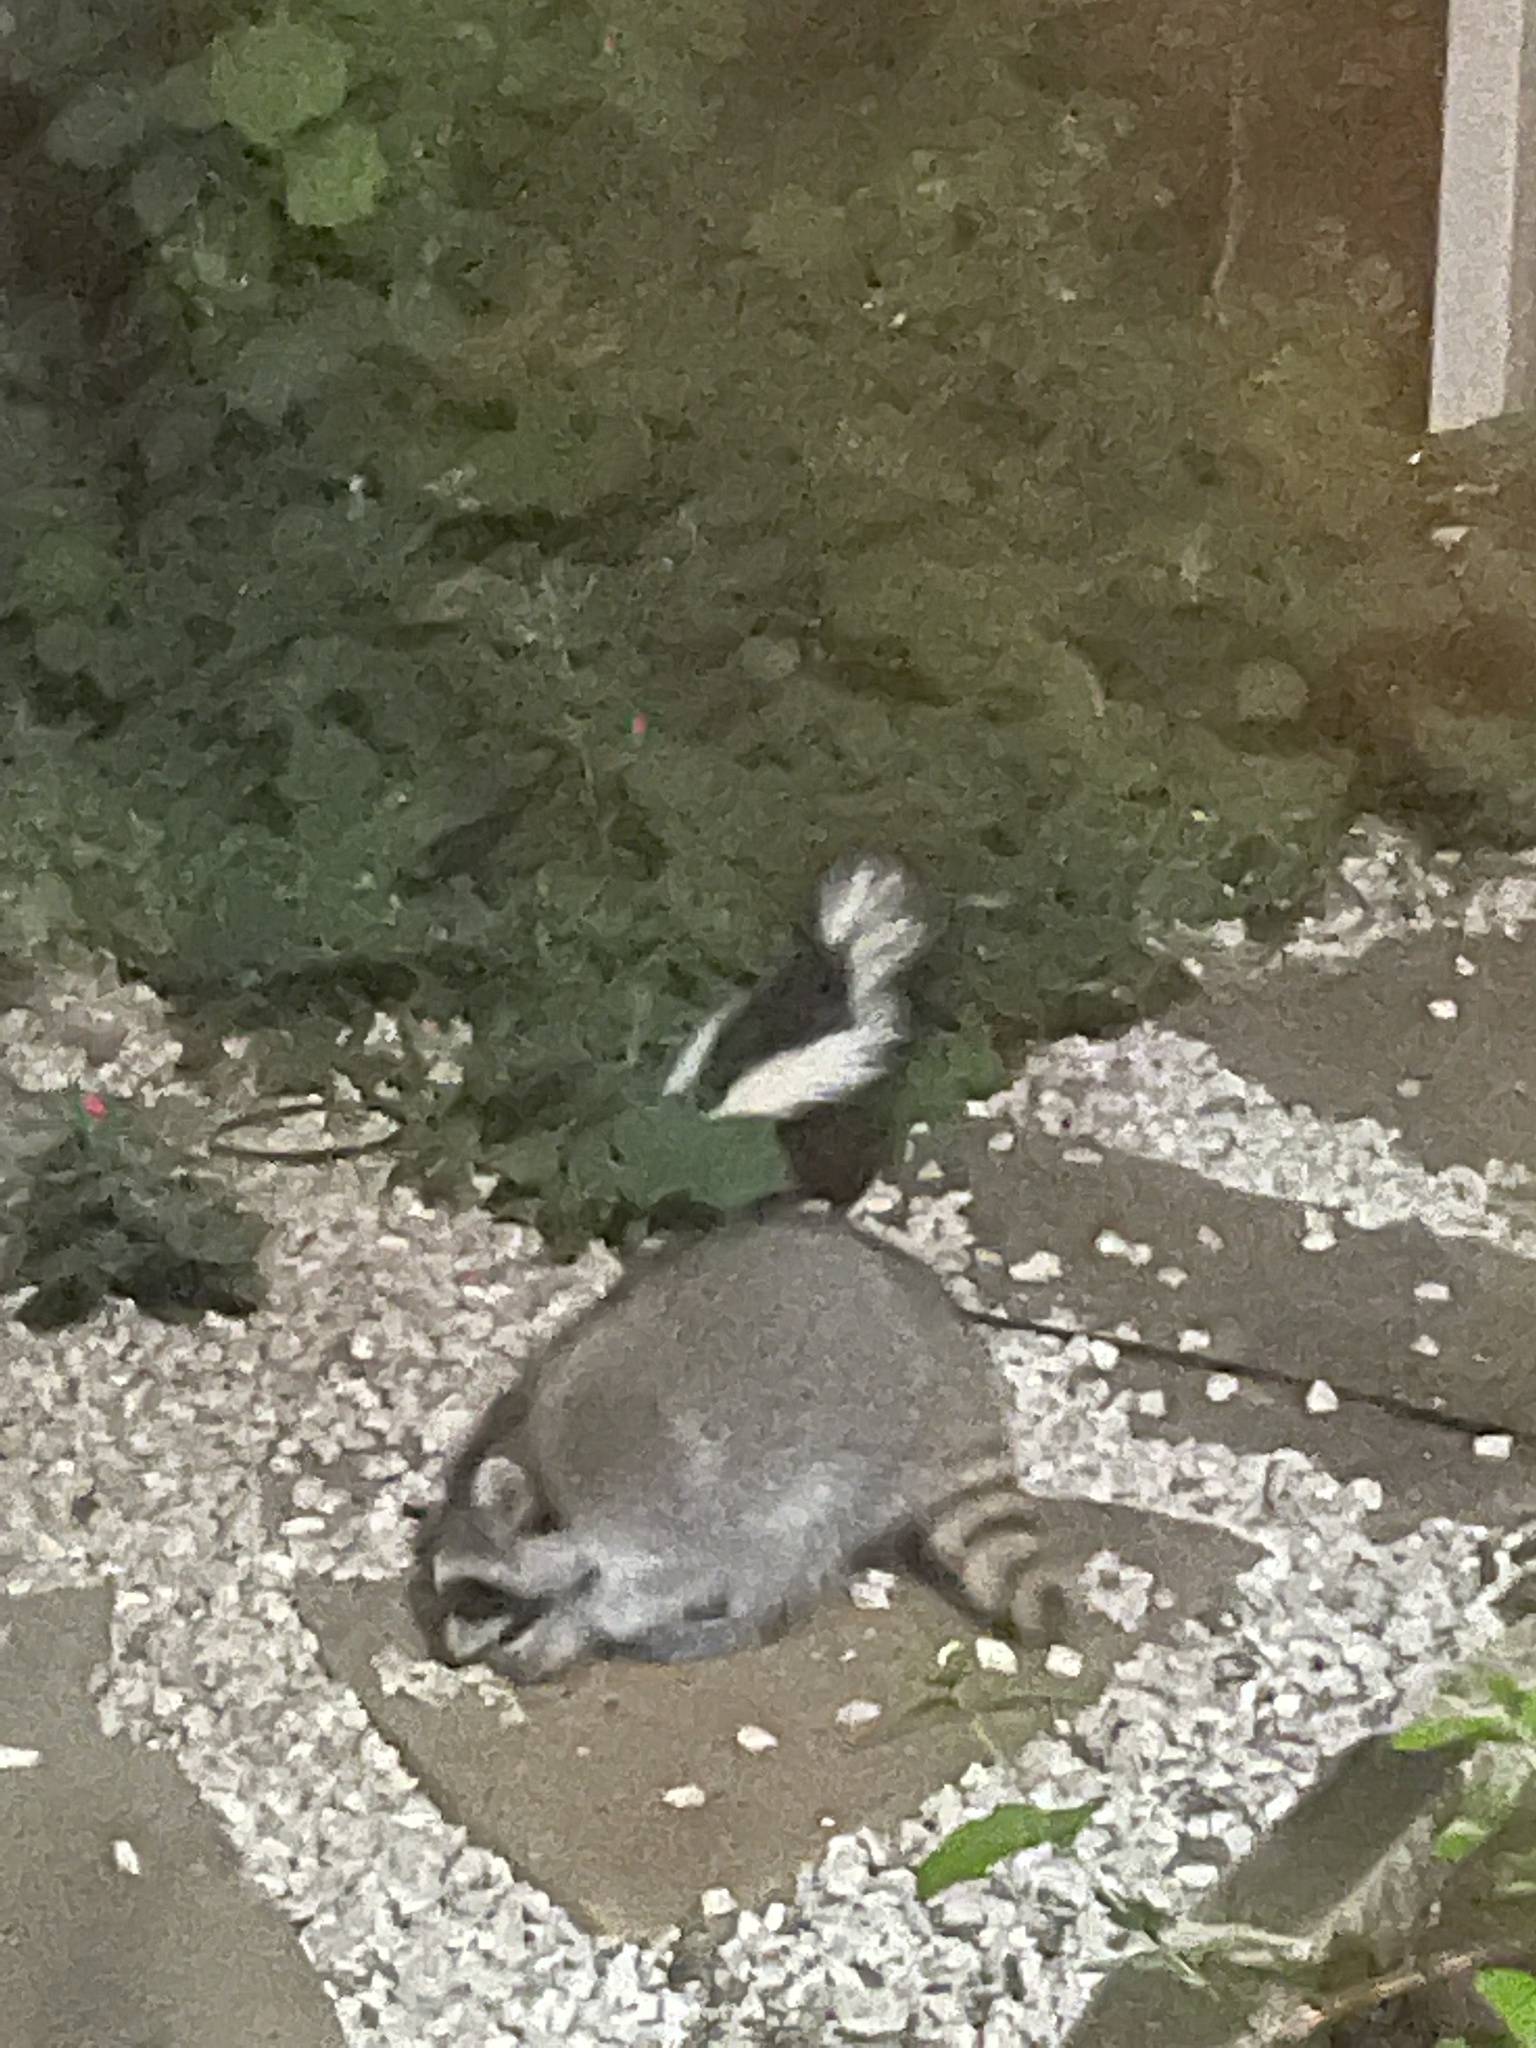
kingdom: Animalia
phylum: Chordata
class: Mammalia
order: Carnivora
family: Procyonidae
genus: Procyon
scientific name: Procyon lotor
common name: Raccoon
